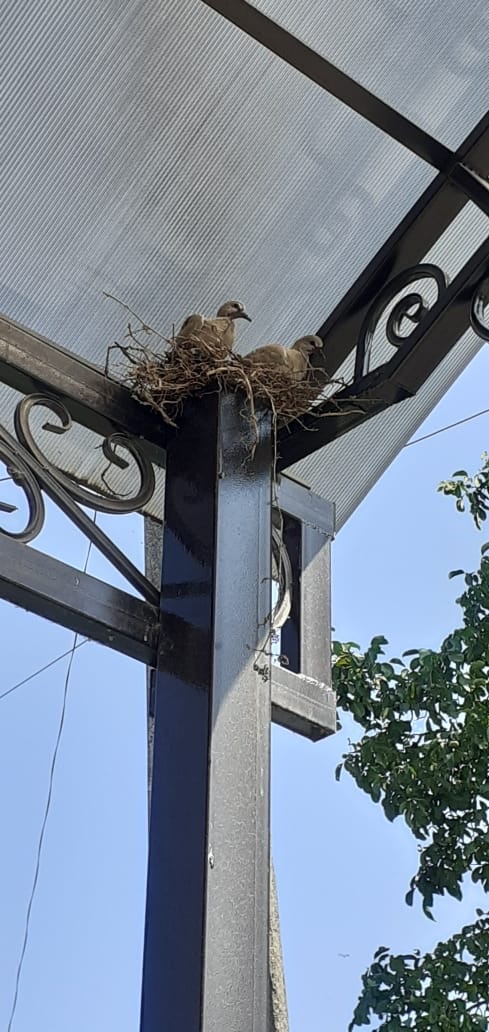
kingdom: Animalia
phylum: Chordata
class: Aves
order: Columbiformes
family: Columbidae
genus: Streptopelia
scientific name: Streptopelia decaocto
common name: Eurasian collared dove
